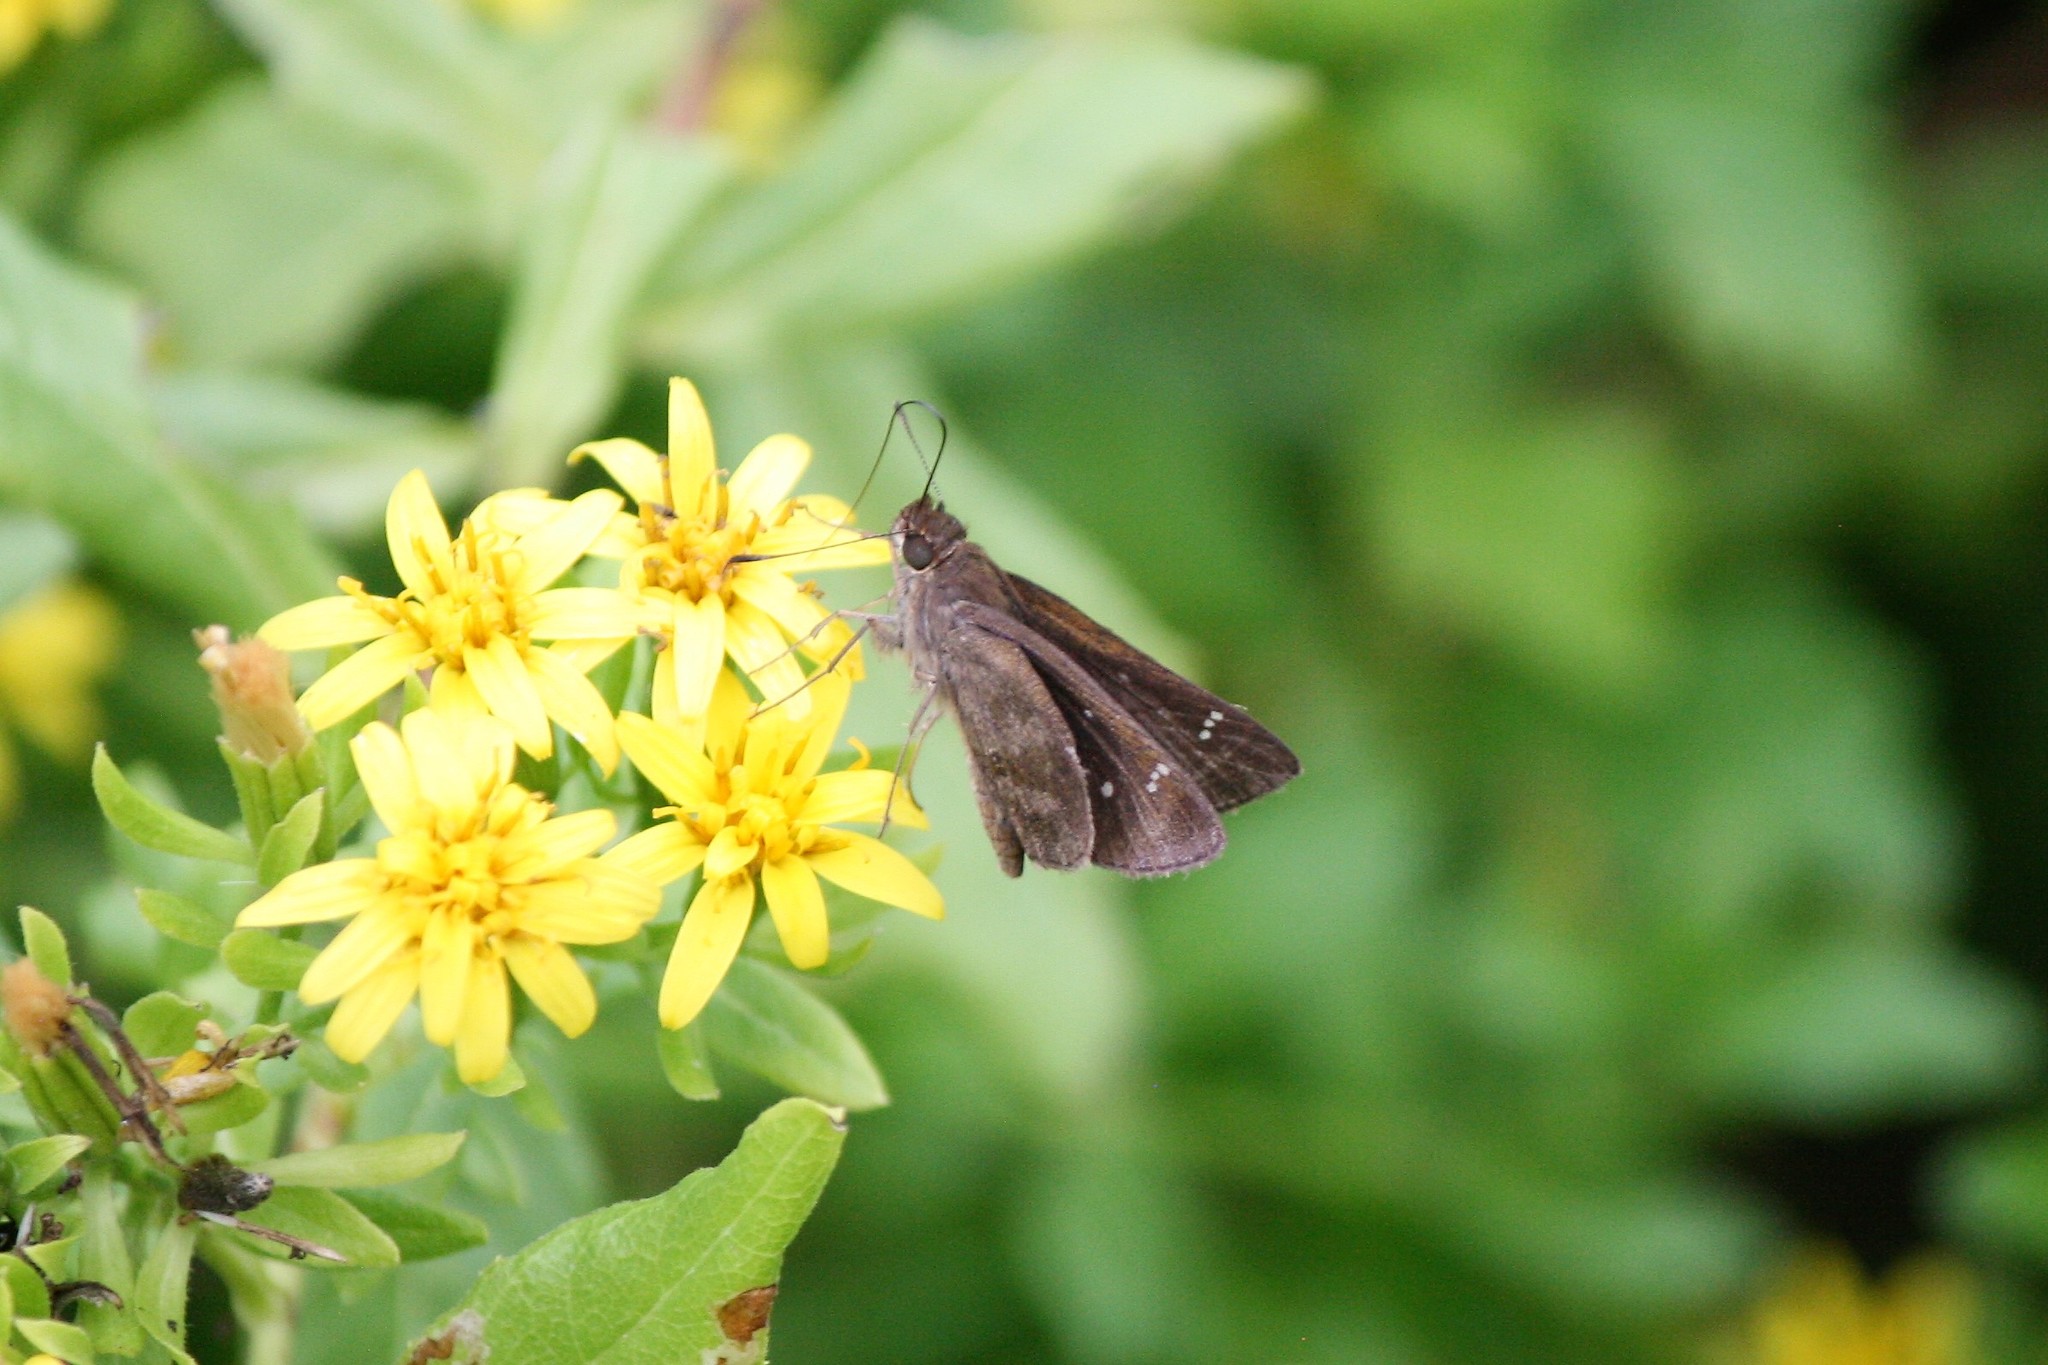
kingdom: Animalia
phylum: Arthropoda
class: Insecta
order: Lepidoptera
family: Hesperiidae
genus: Lerema
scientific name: Lerema accius
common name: Clouded skipper
